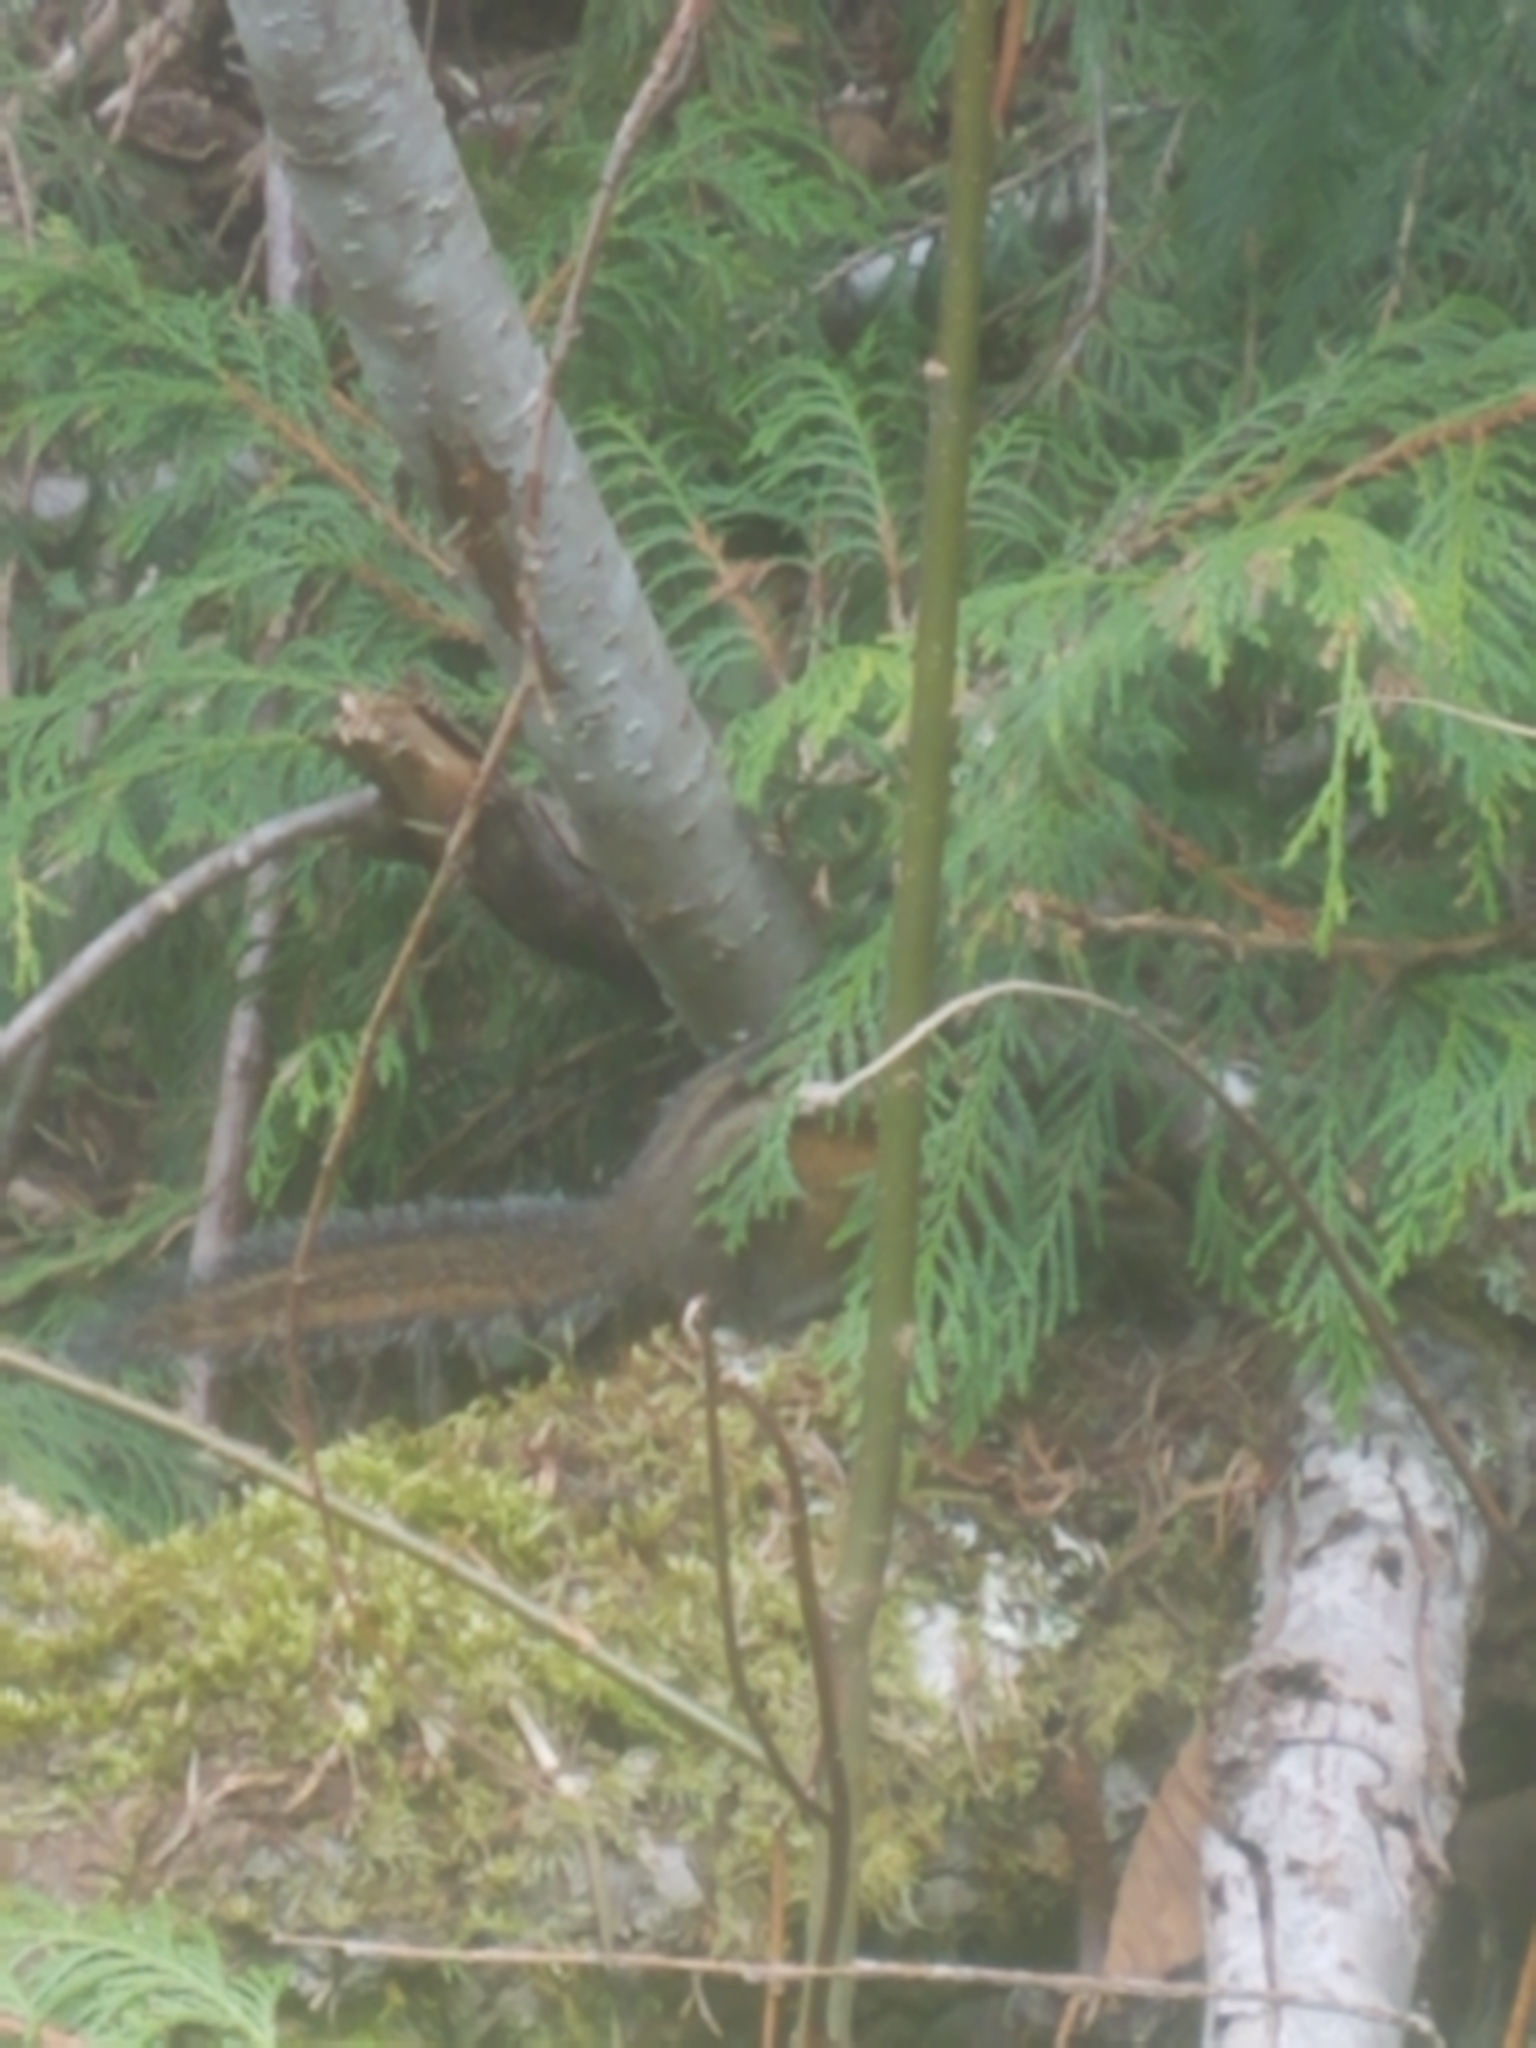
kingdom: Animalia
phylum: Chordata
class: Mammalia
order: Rodentia
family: Sciuridae
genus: Tamias
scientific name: Tamias townsendii
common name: Townsend's chipmunk
